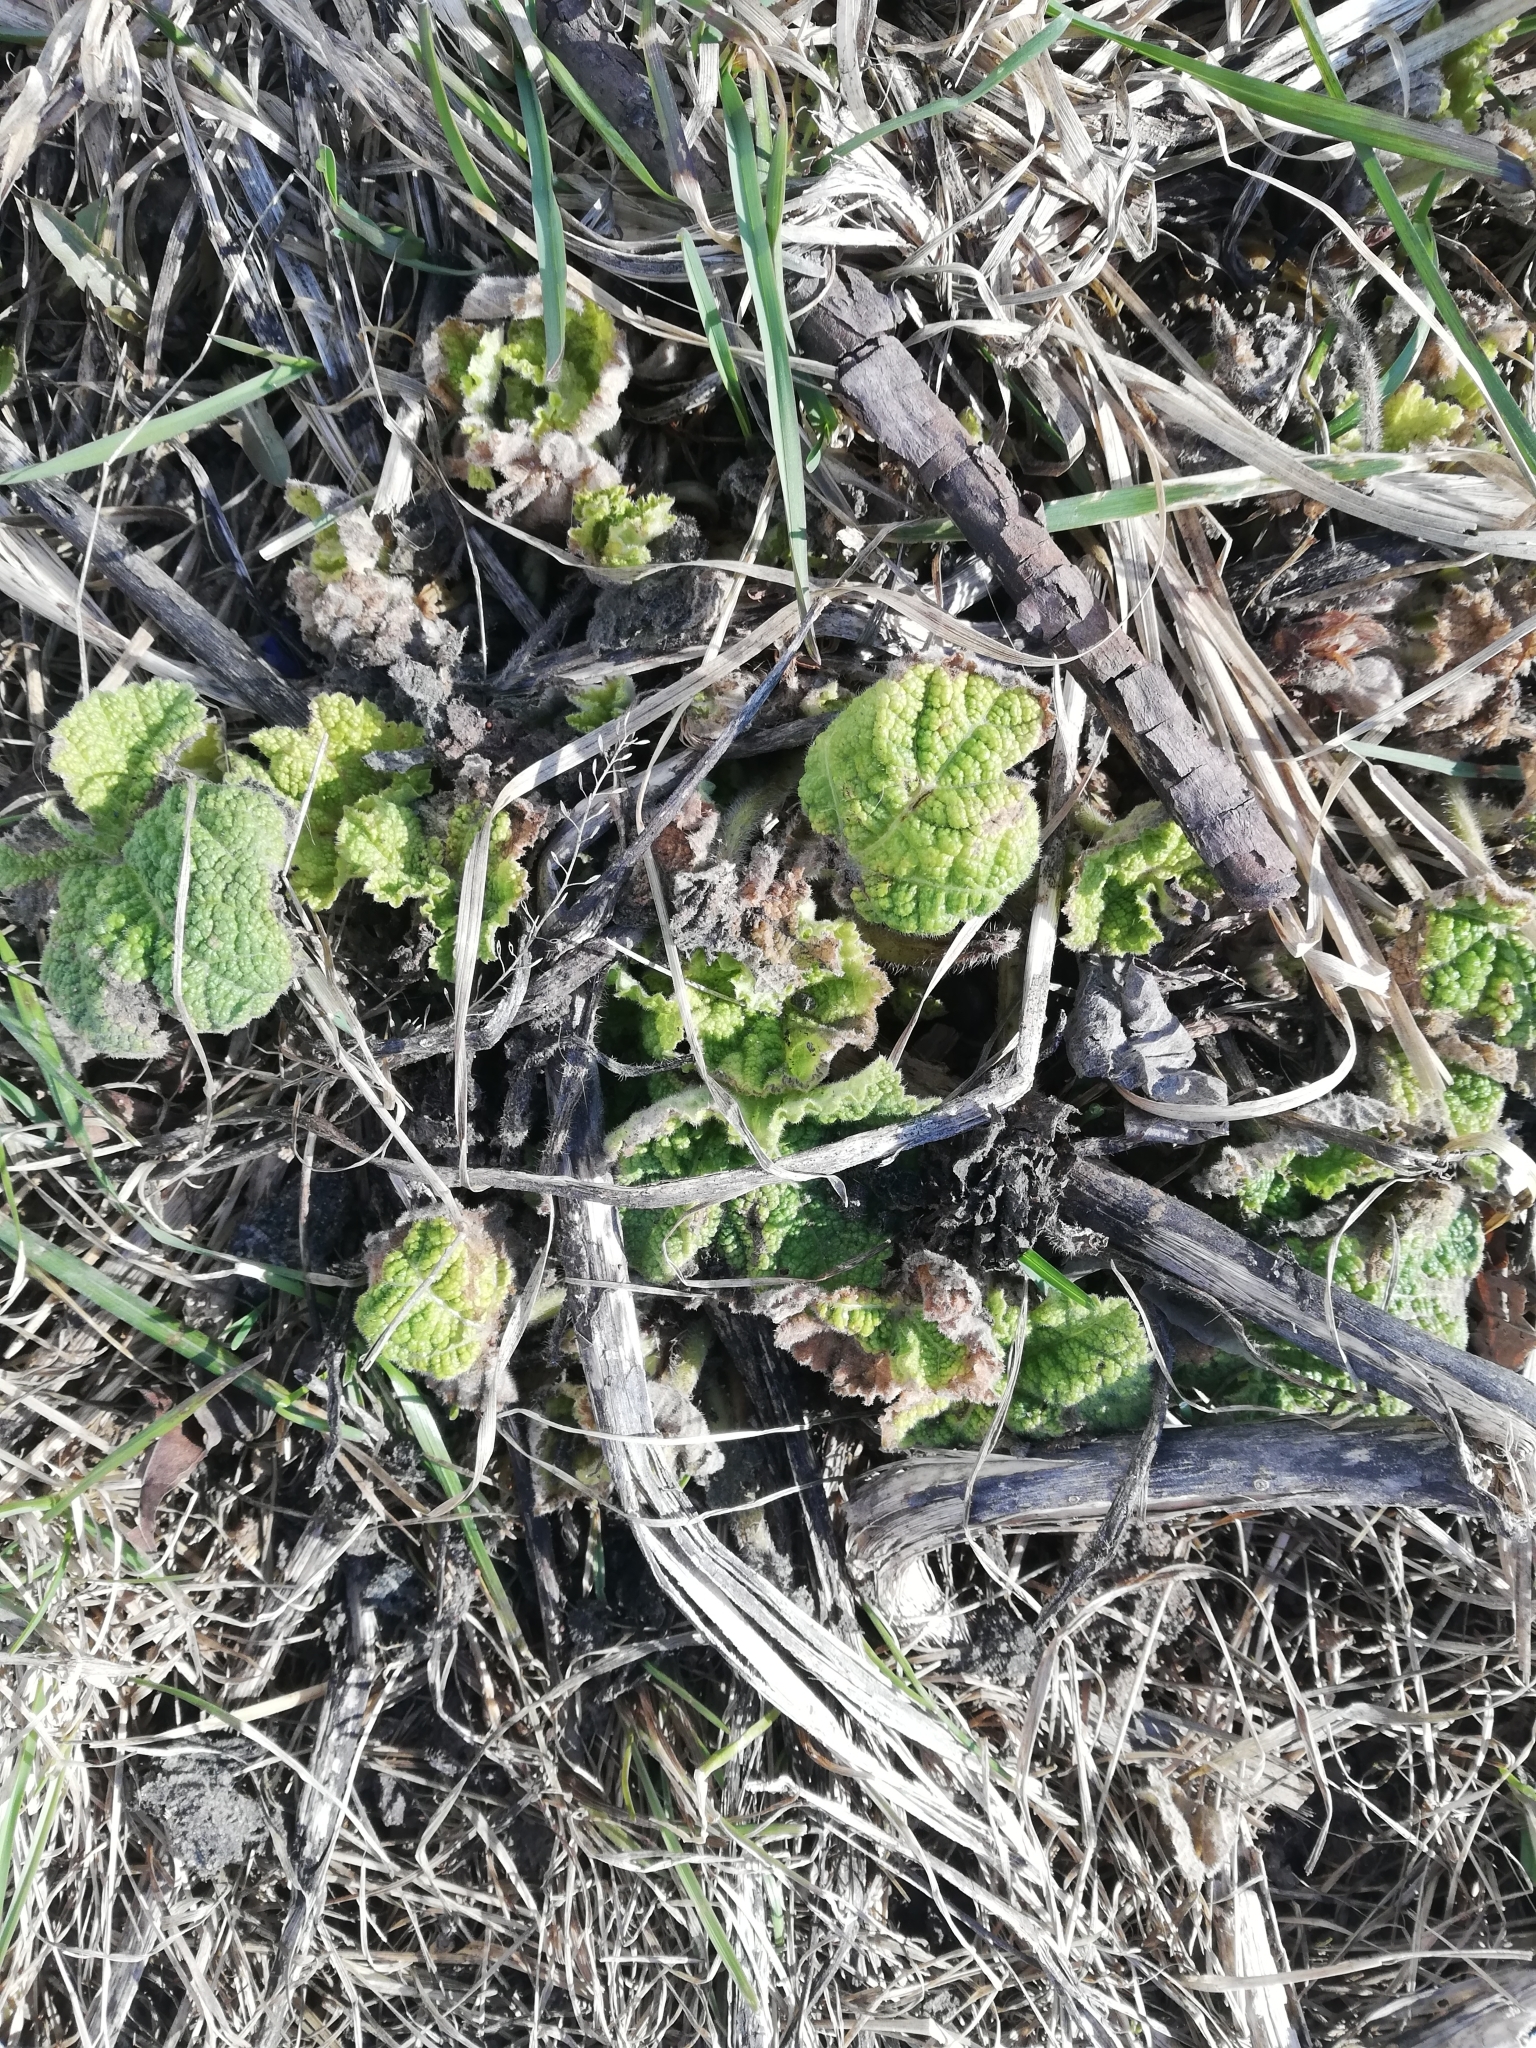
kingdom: Plantae
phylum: Tracheophyta
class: Magnoliopsida
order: Malvales
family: Malvaceae
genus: Alcea
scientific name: Alcea rosea
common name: Hollyhock
